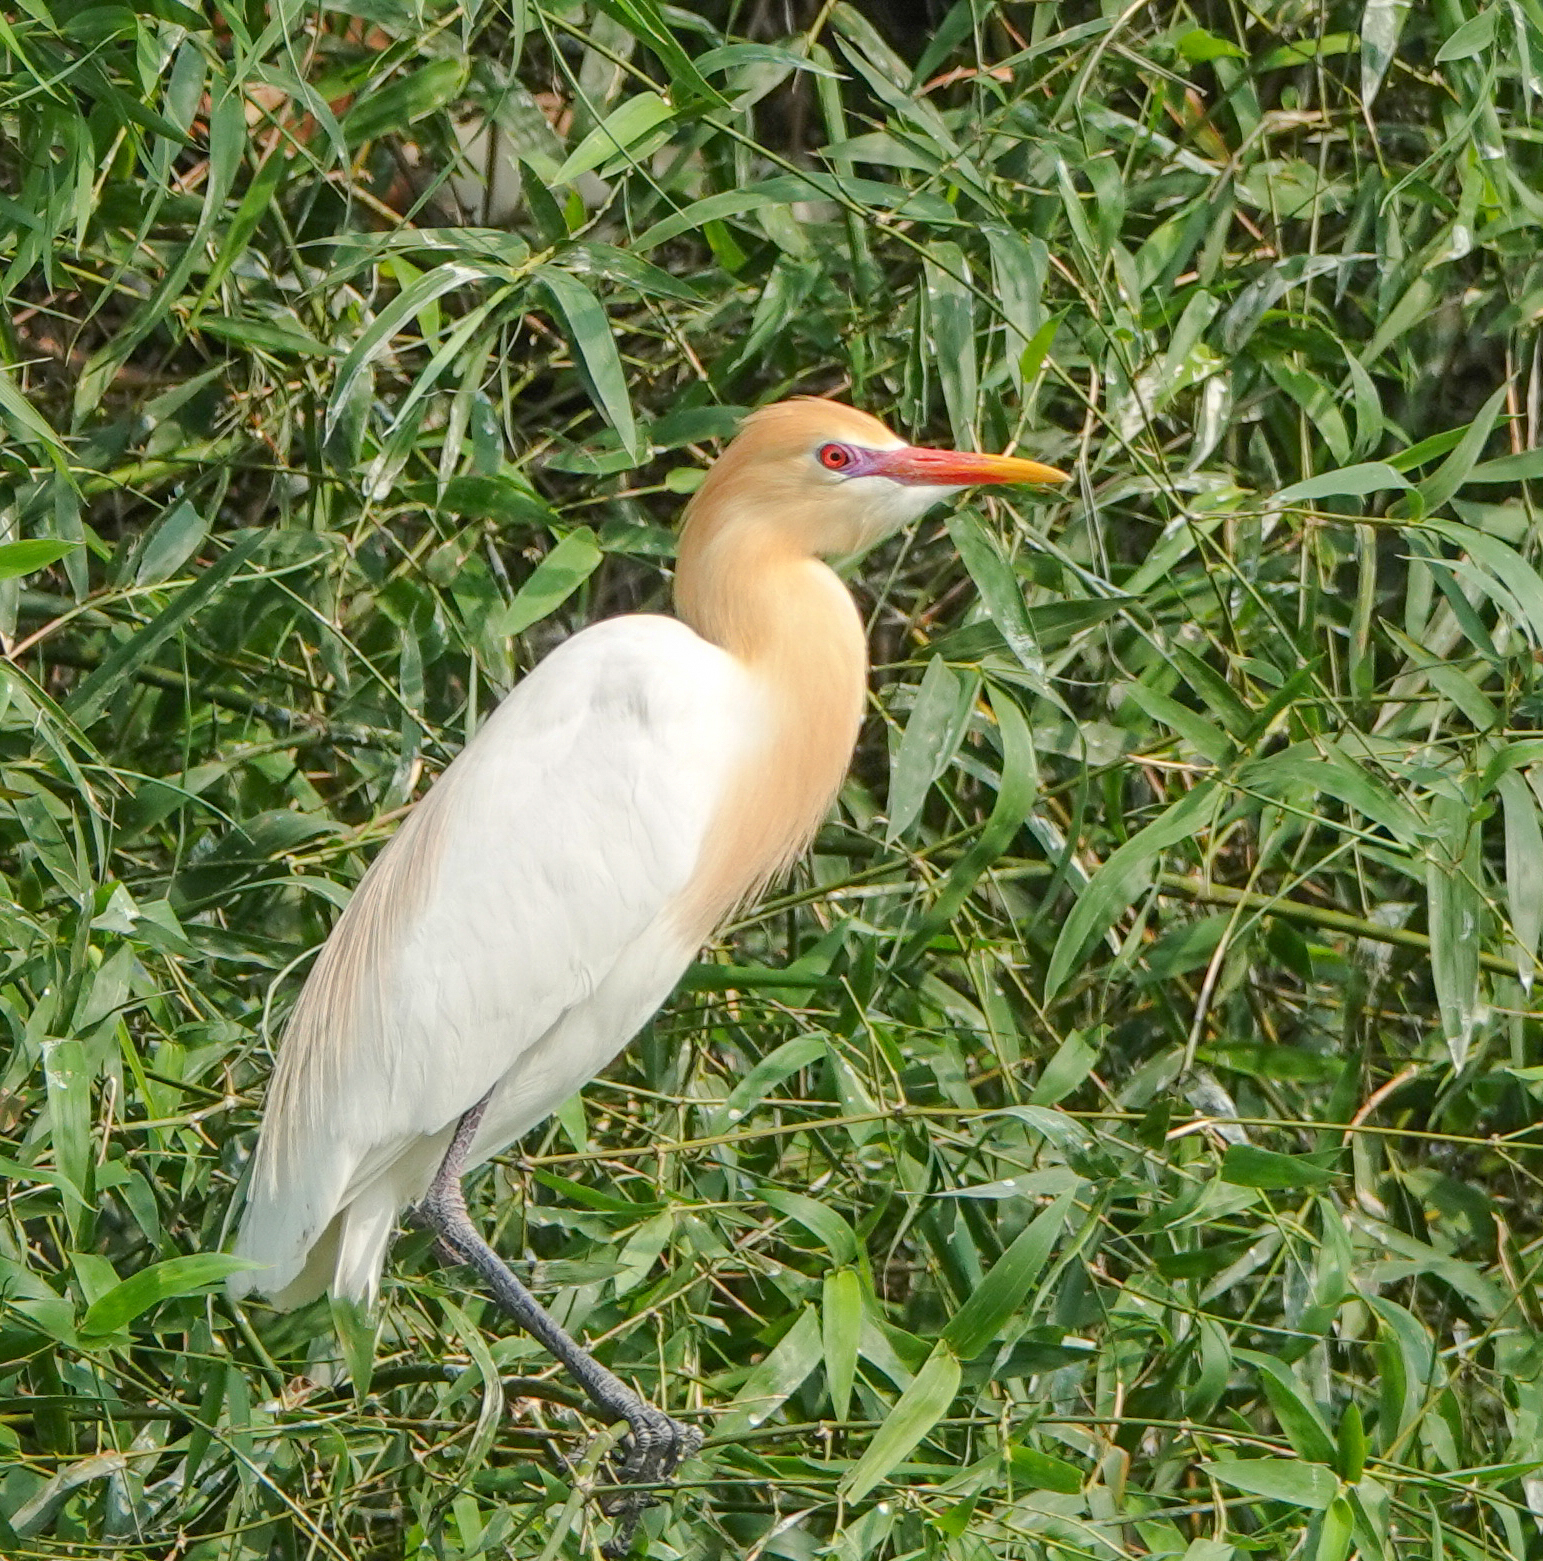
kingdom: Animalia
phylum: Chordata
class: Aves
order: Pelecaniformes
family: Ardeidae
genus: Bubulcus
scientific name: Bubulcus coromandus
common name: Eastern cattle egret
